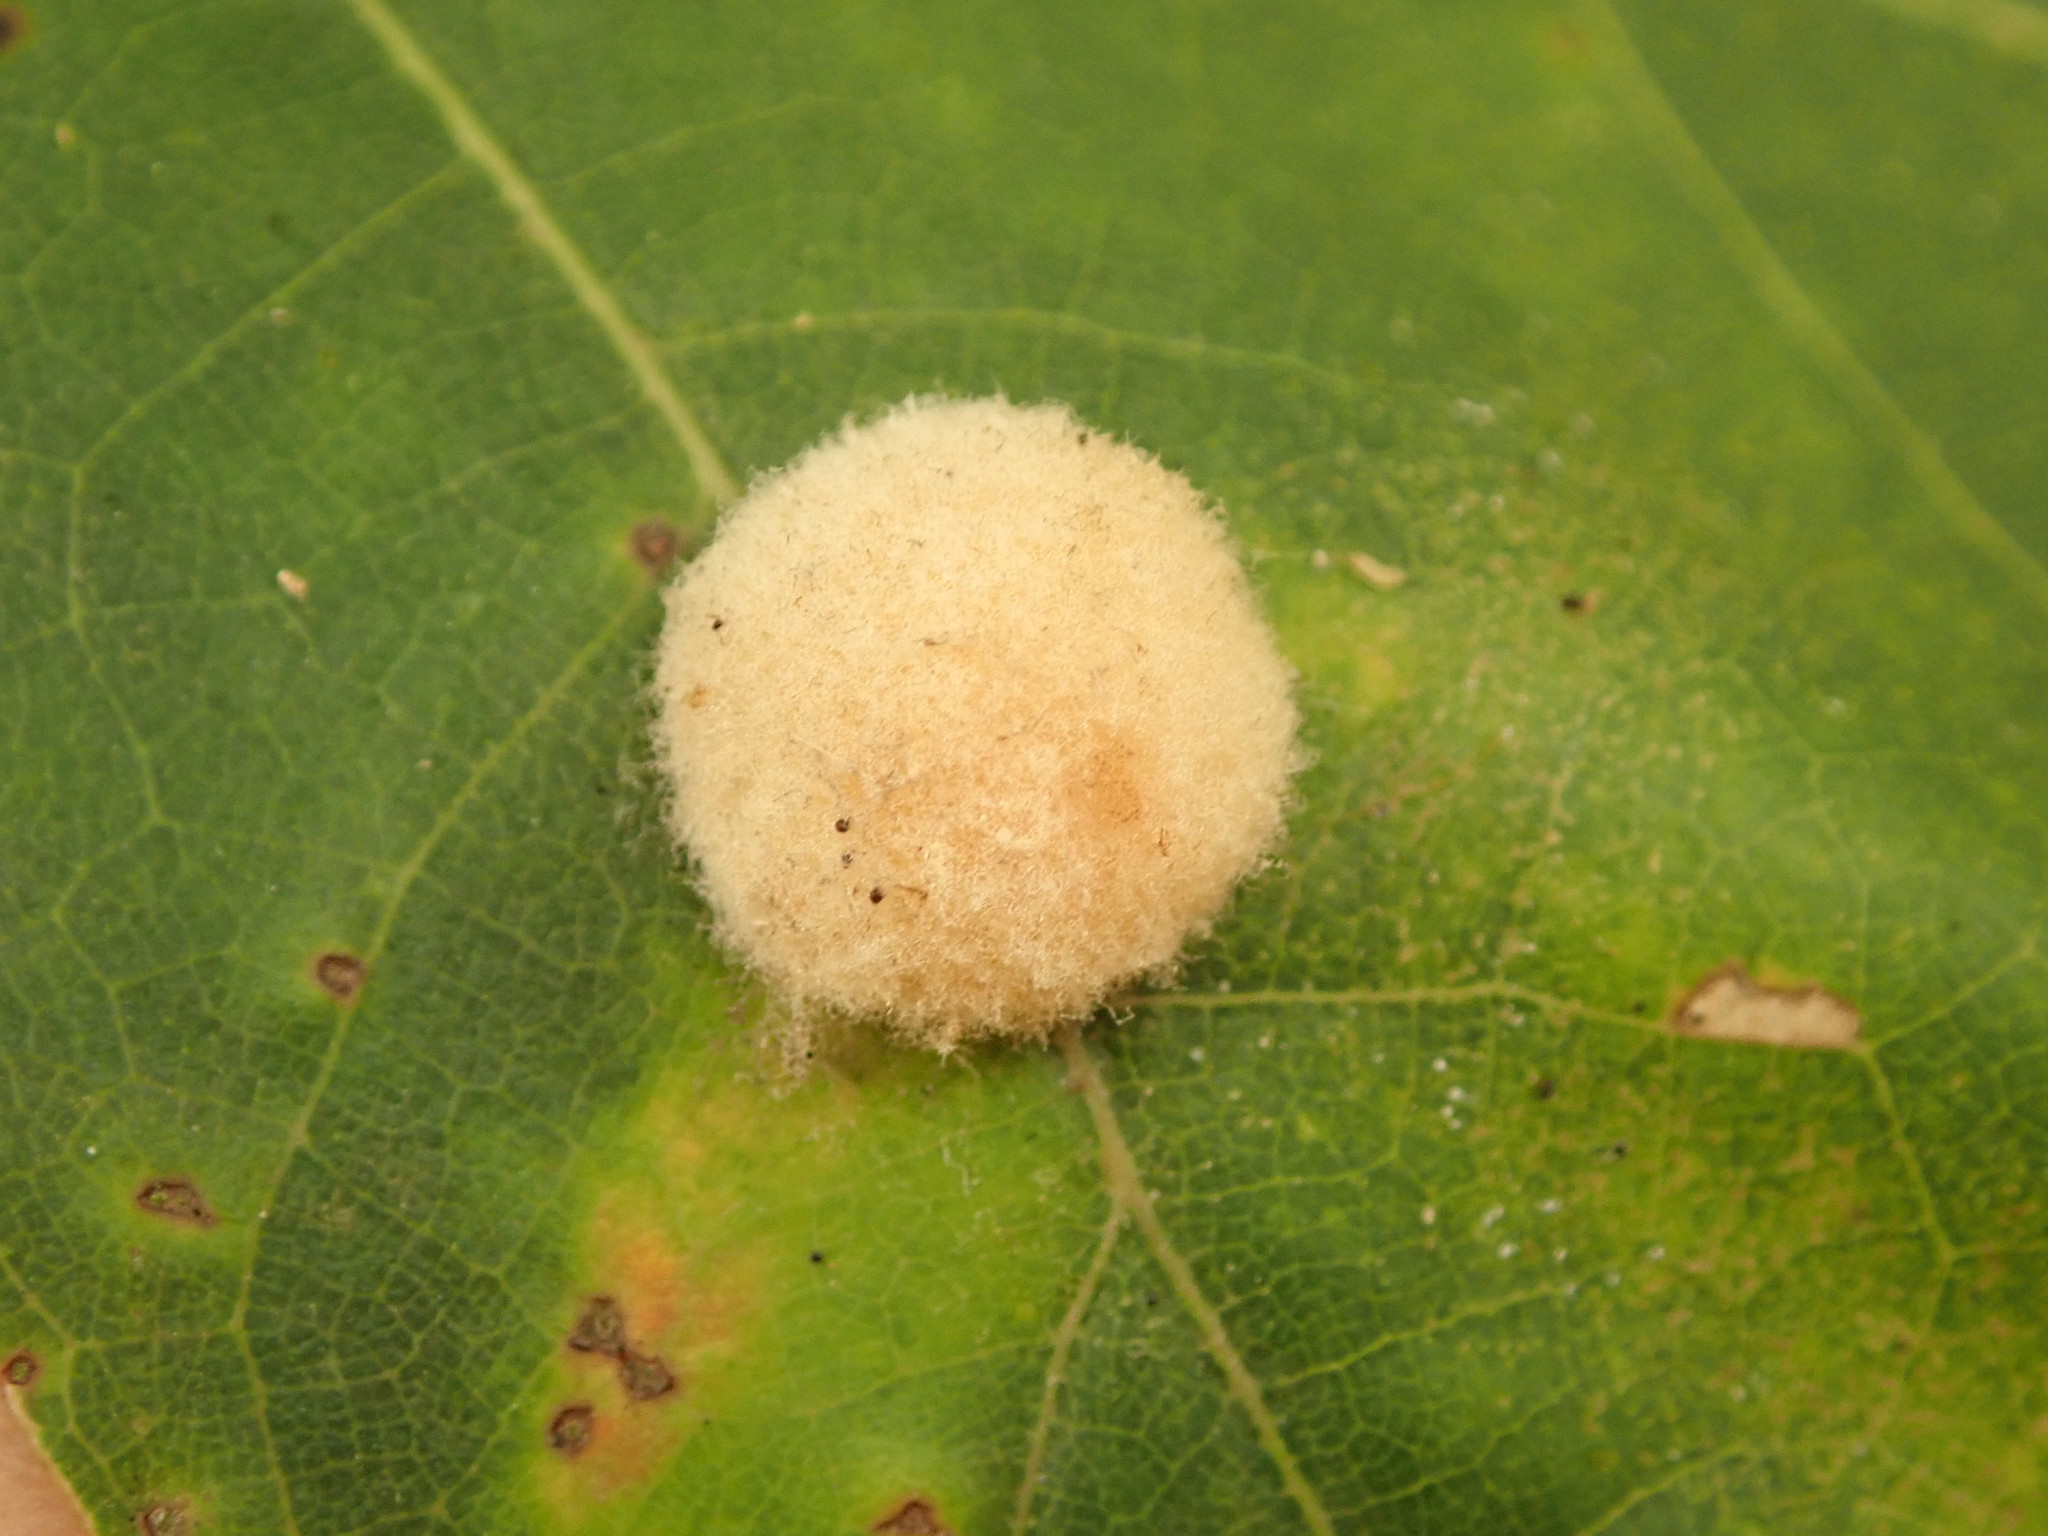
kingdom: Animalia
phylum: Arthropoda
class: Insecta
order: Hymenoptera
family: Cynipidae
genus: Callirhytis
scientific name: Callirhytis
